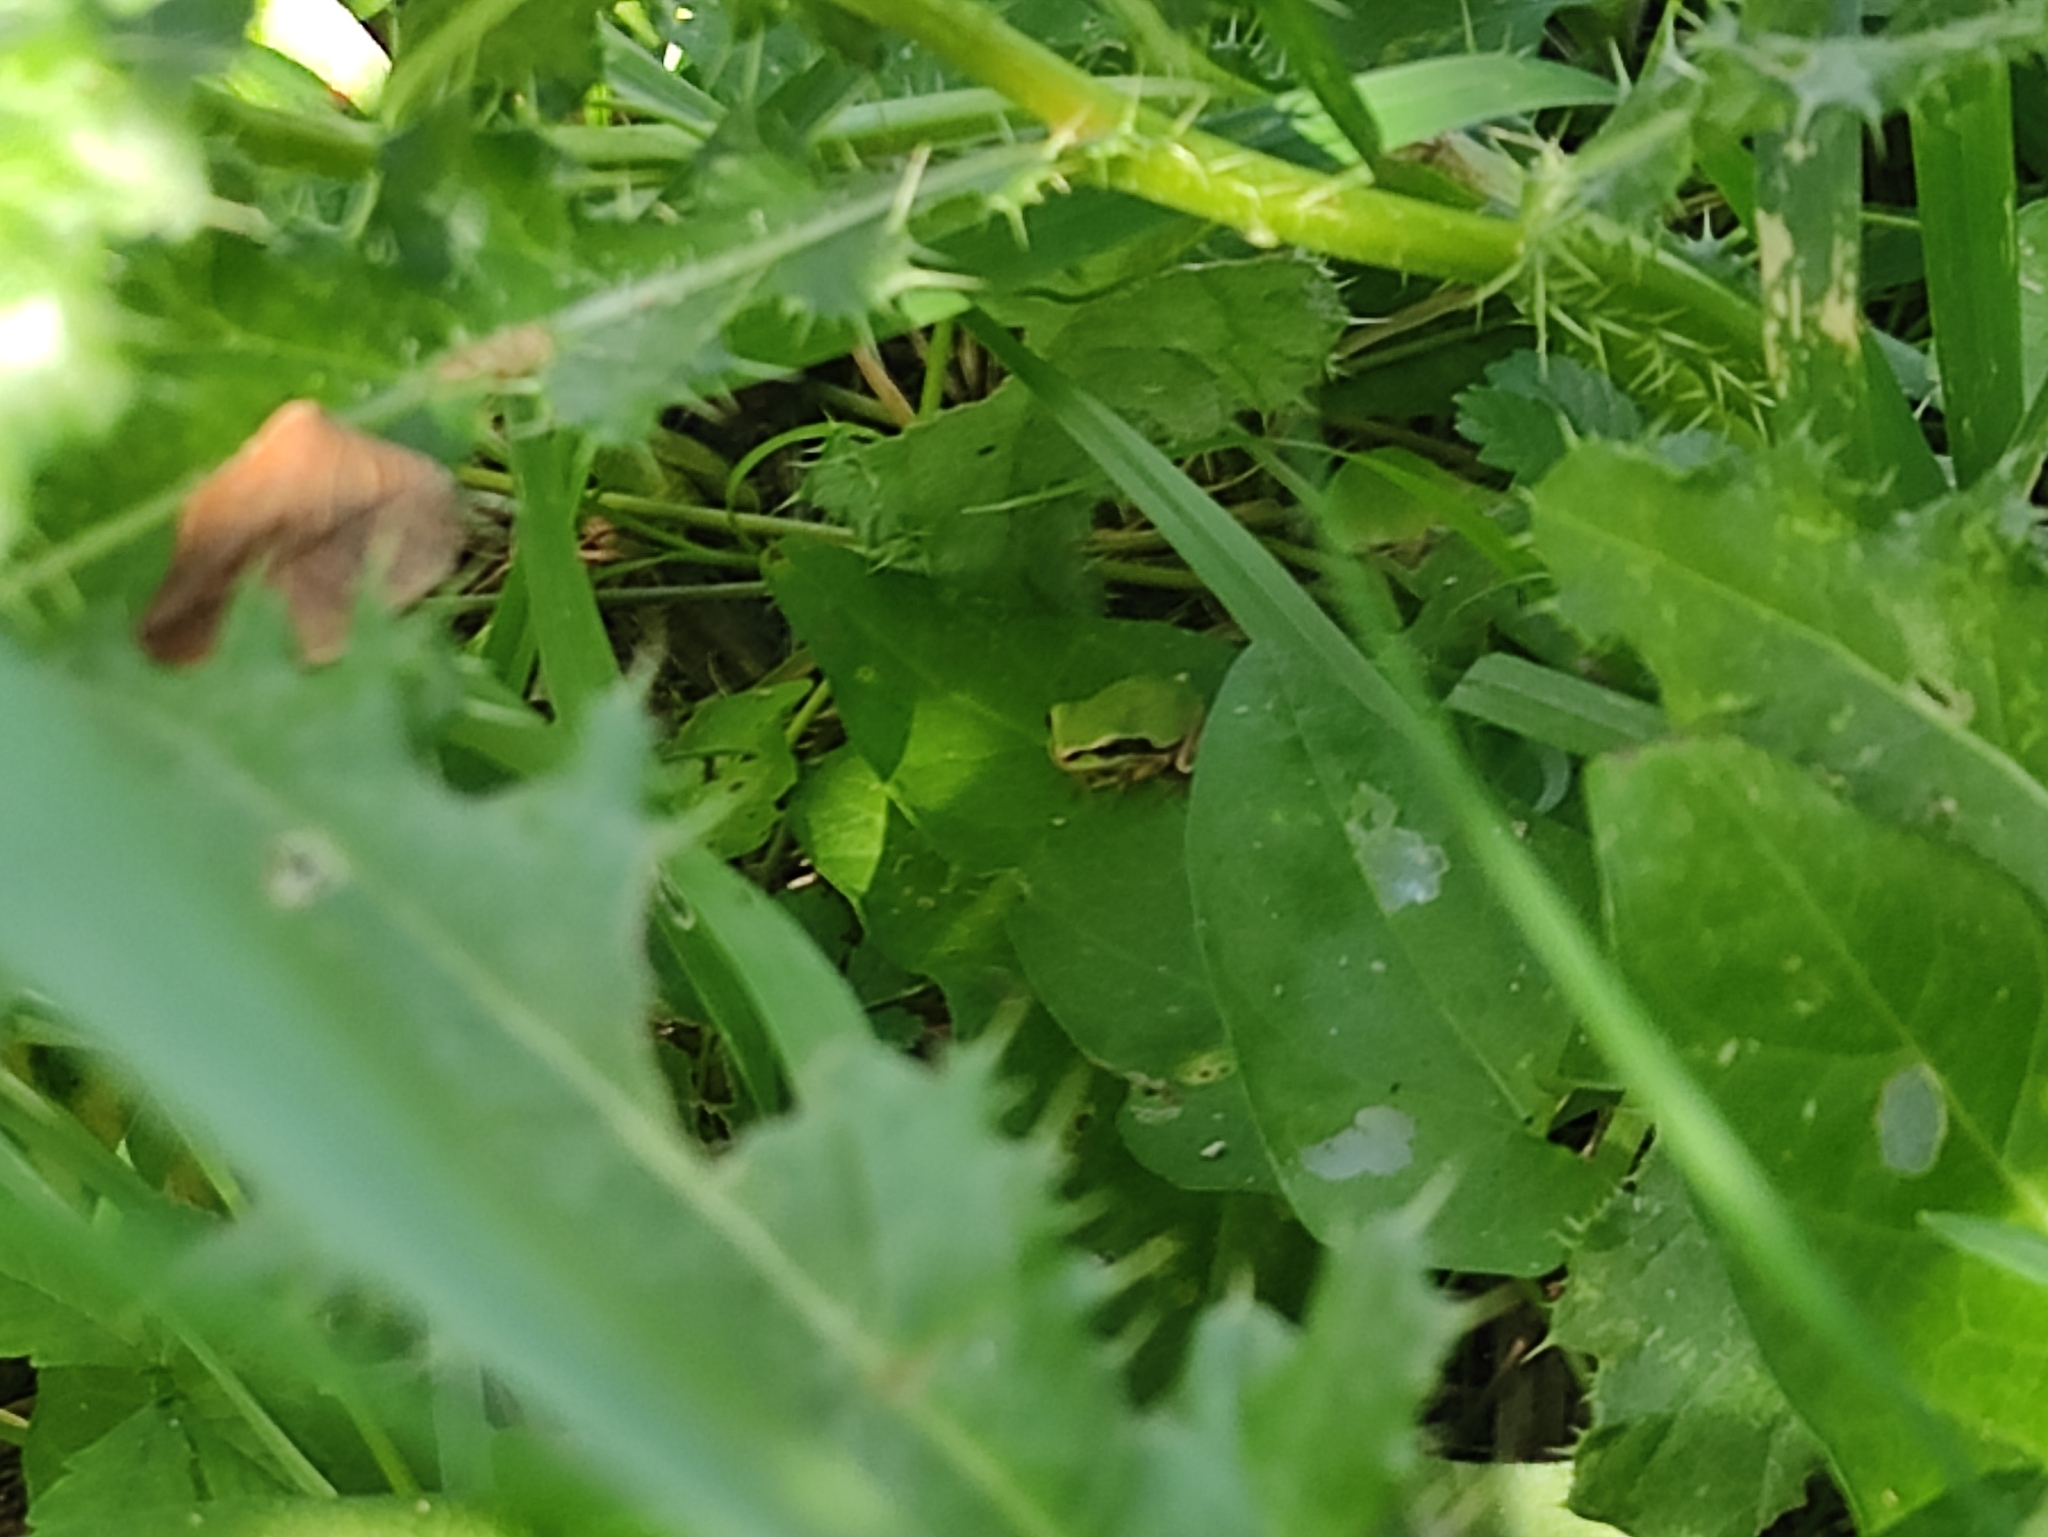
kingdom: Animalia
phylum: Chordata
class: Amphibia
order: Anura
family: Hylidae
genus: Hyla
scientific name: Hyla meridionalis
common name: Stripeless tree frog
